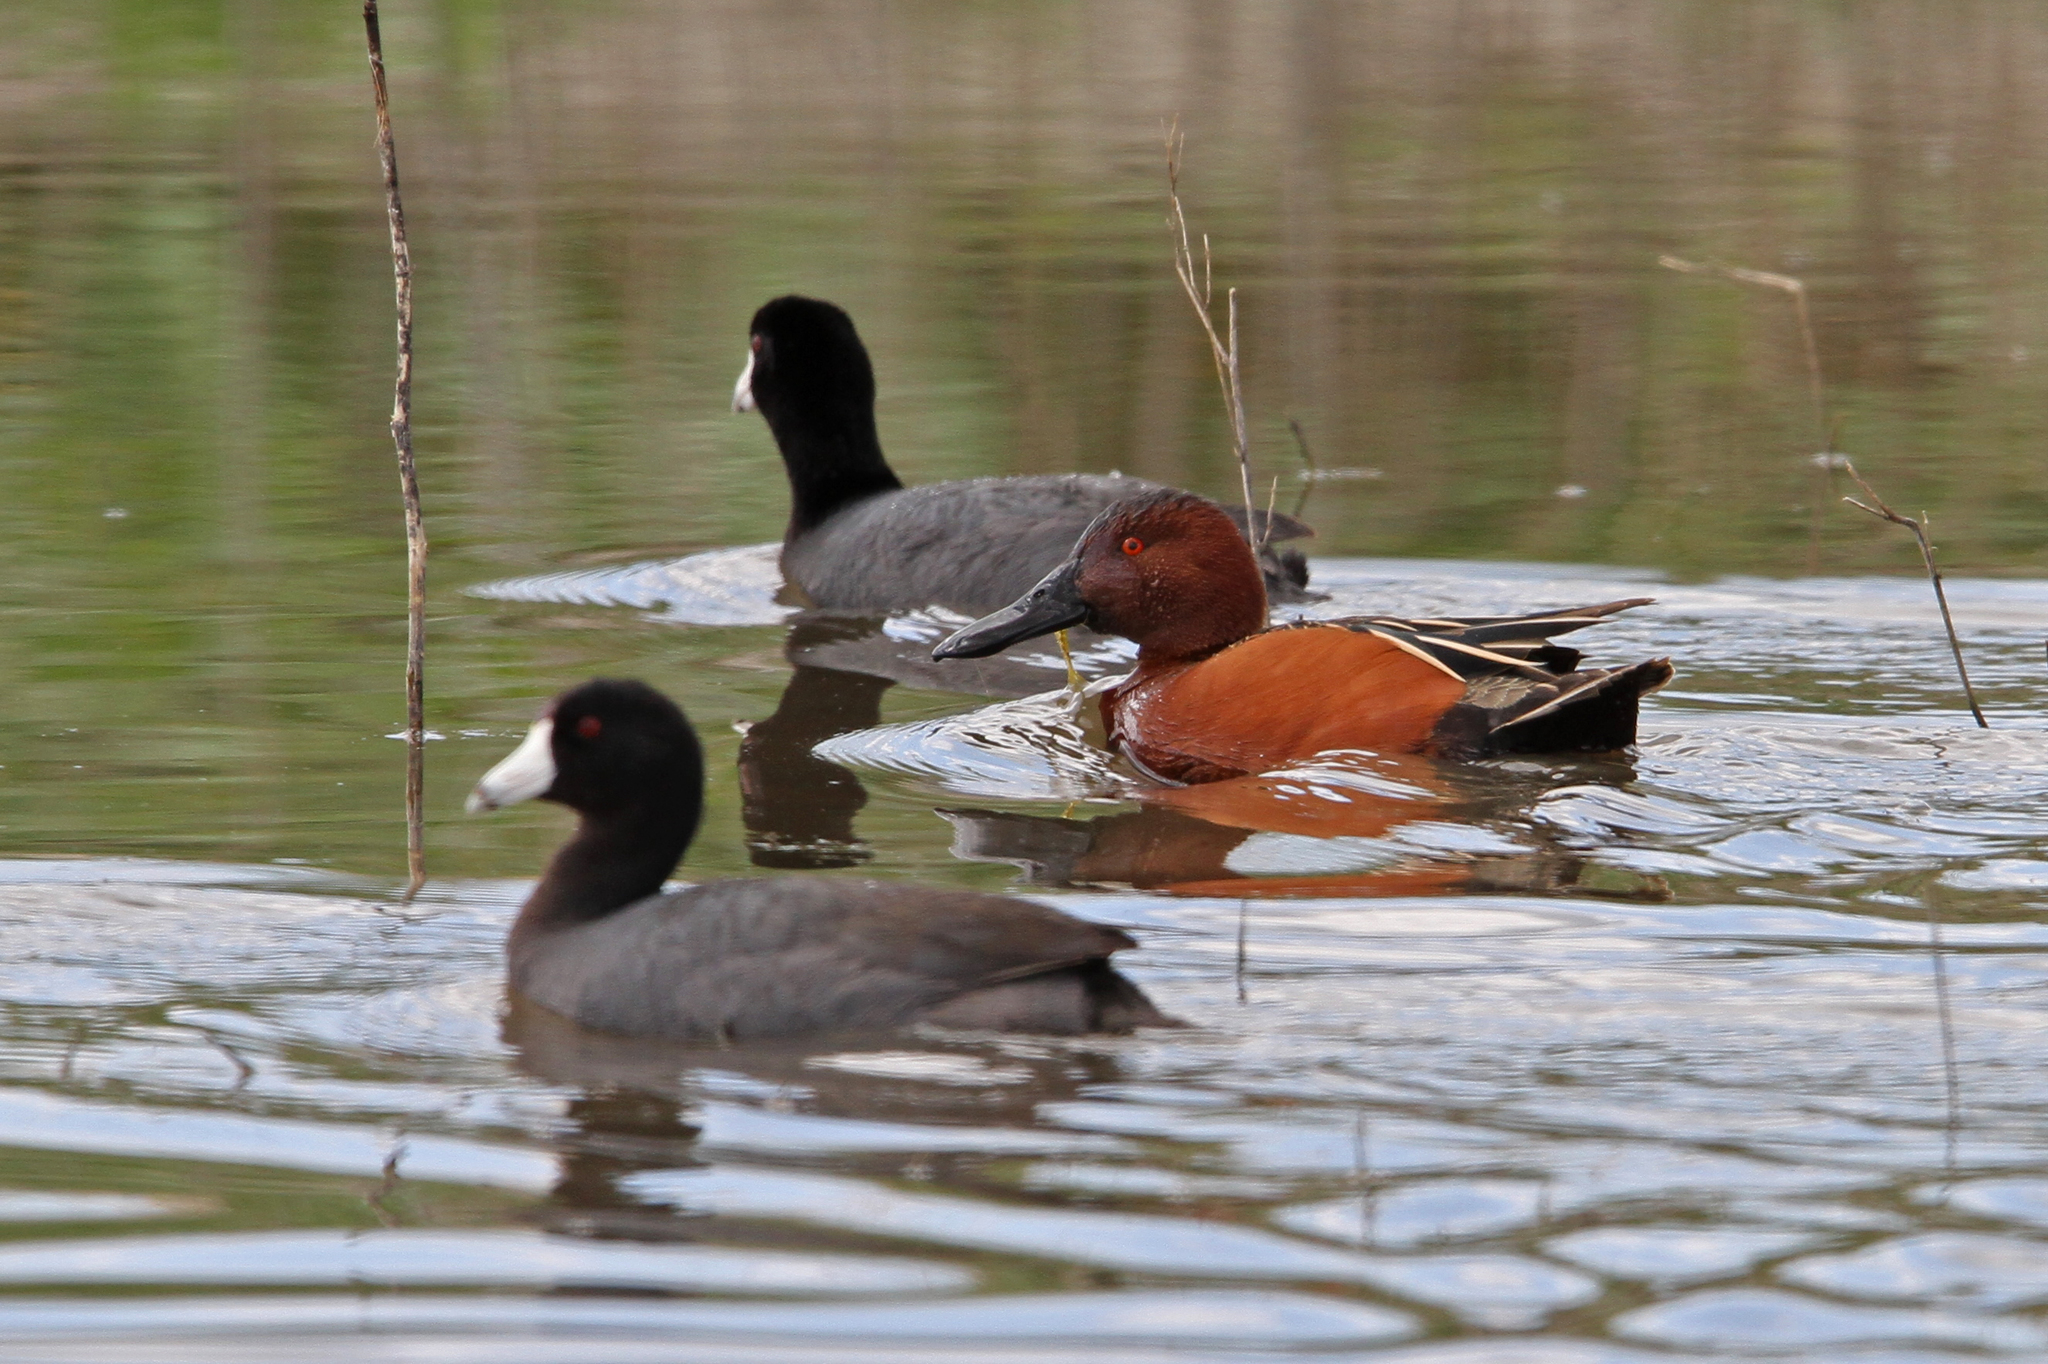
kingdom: Animalia
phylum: Chordata
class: Aves
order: Anseriformes
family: Anatidae
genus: Spatula
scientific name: Spatula cyanoptera
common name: Cinnamon teal
